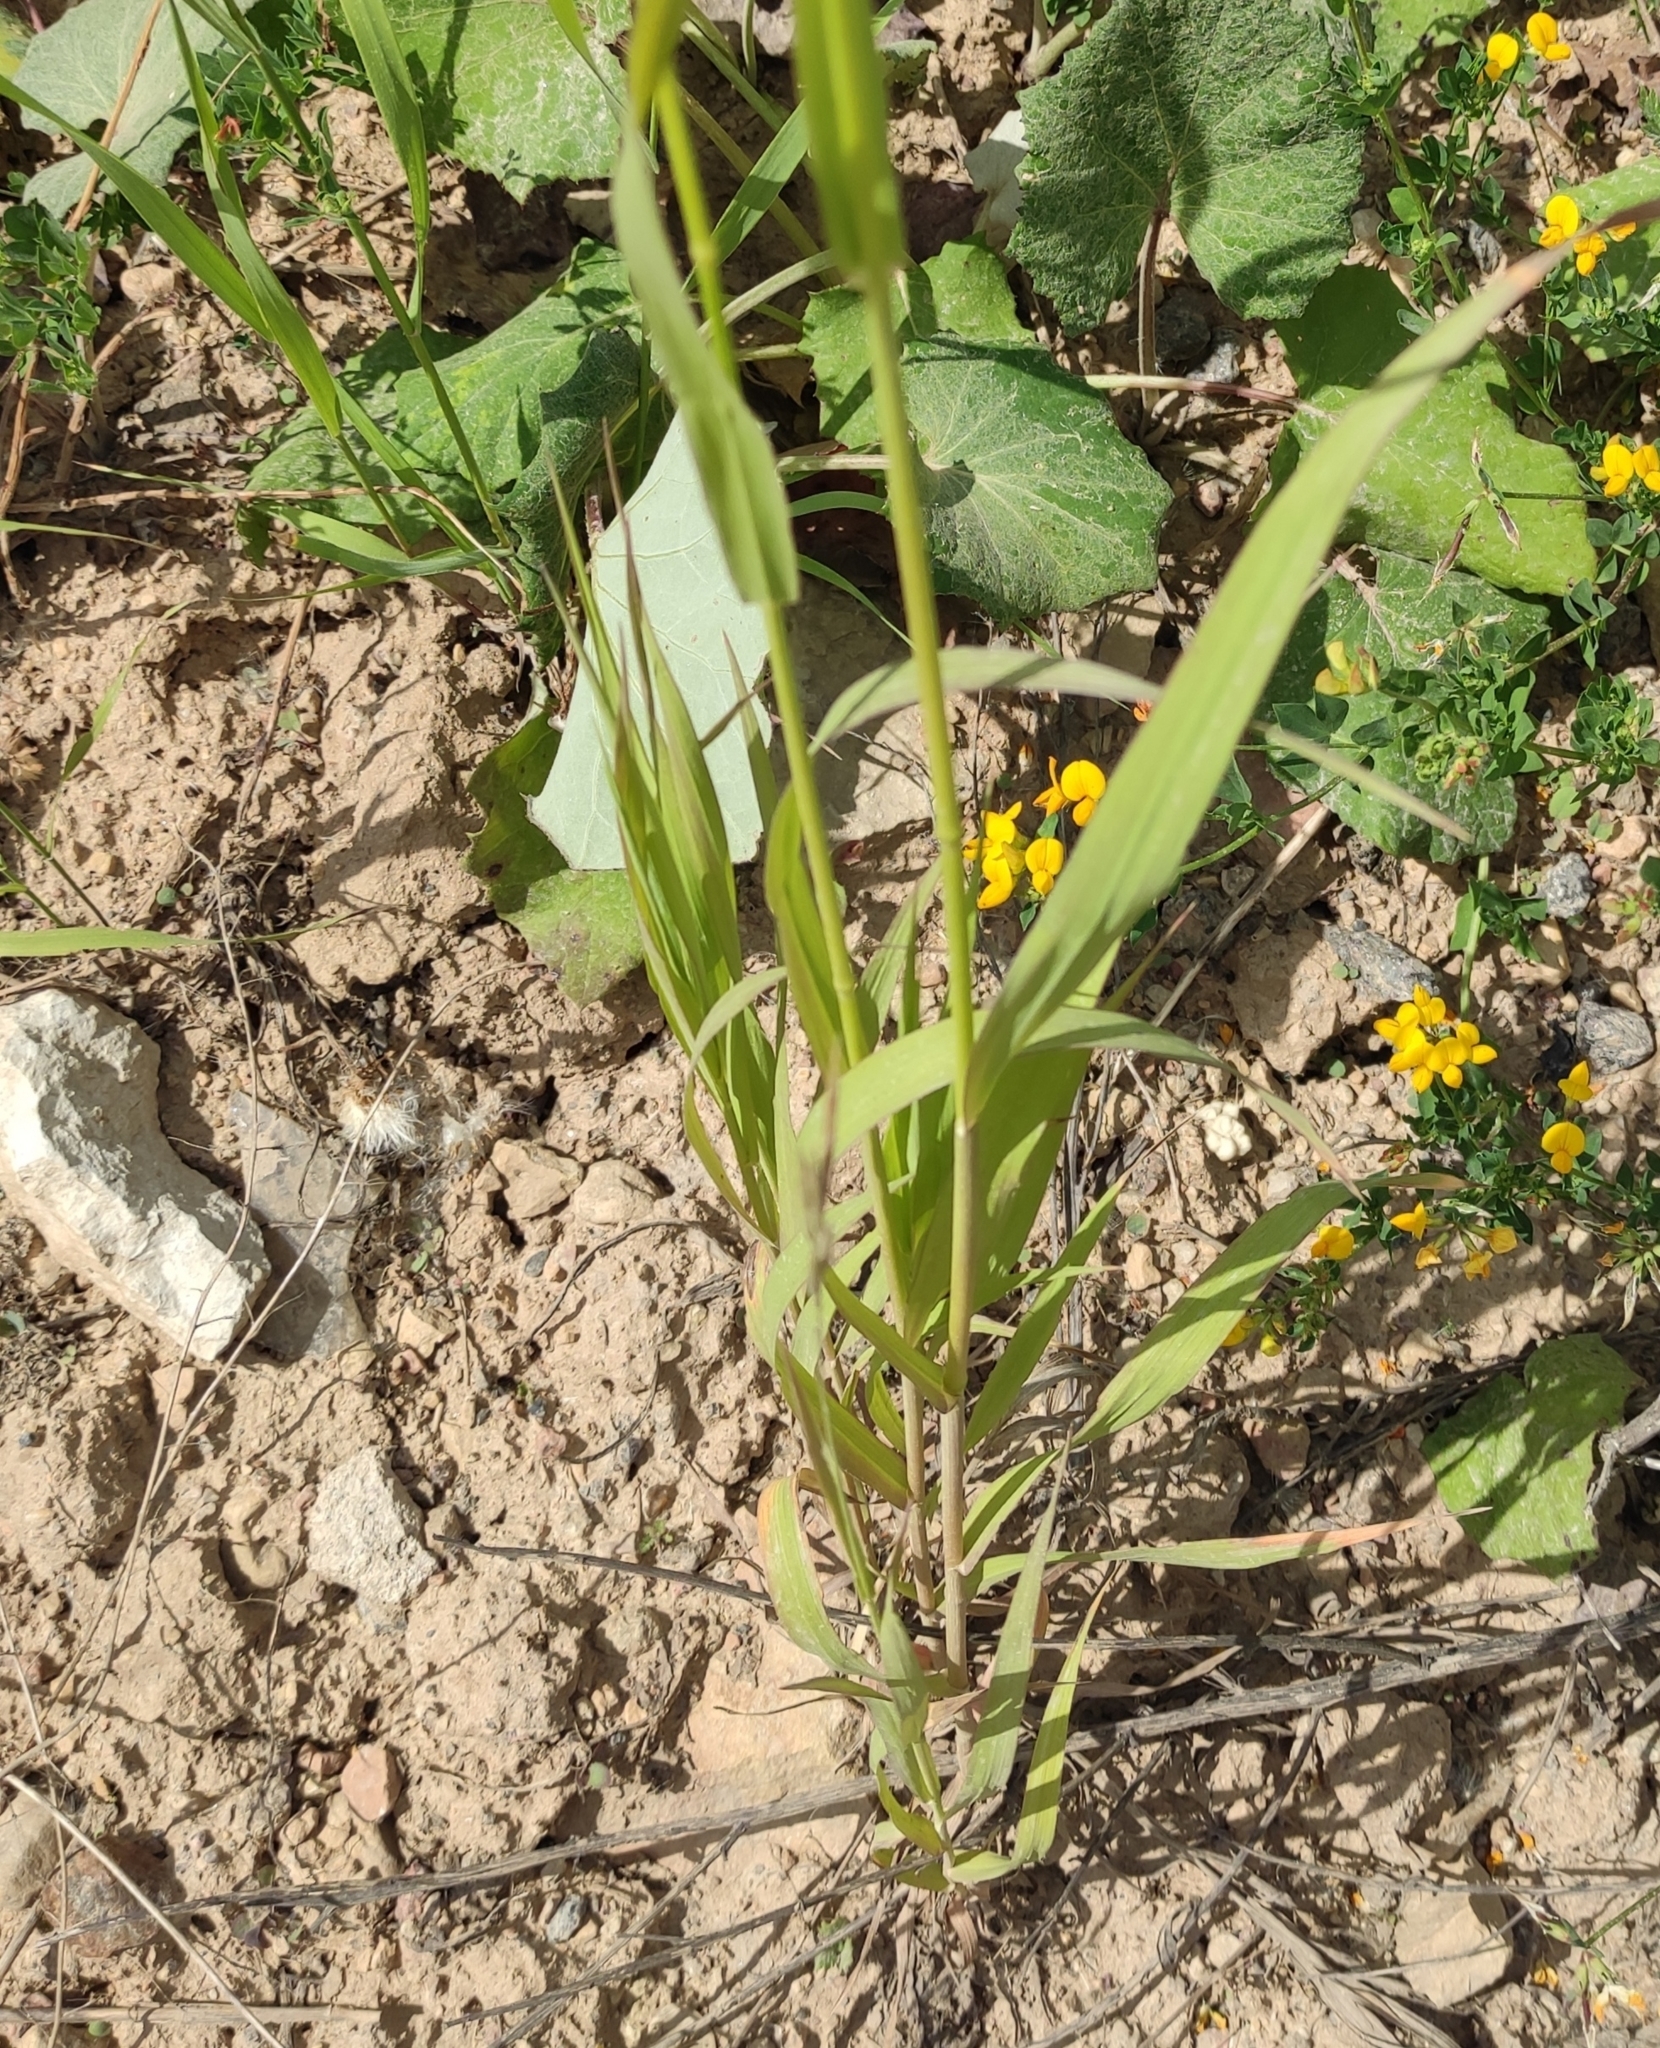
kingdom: Plantae
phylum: Tracheophyta
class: Liliopsida
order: Poales
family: Poaceae
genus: Bromus
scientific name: Bromus inermis
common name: Smooth brome
